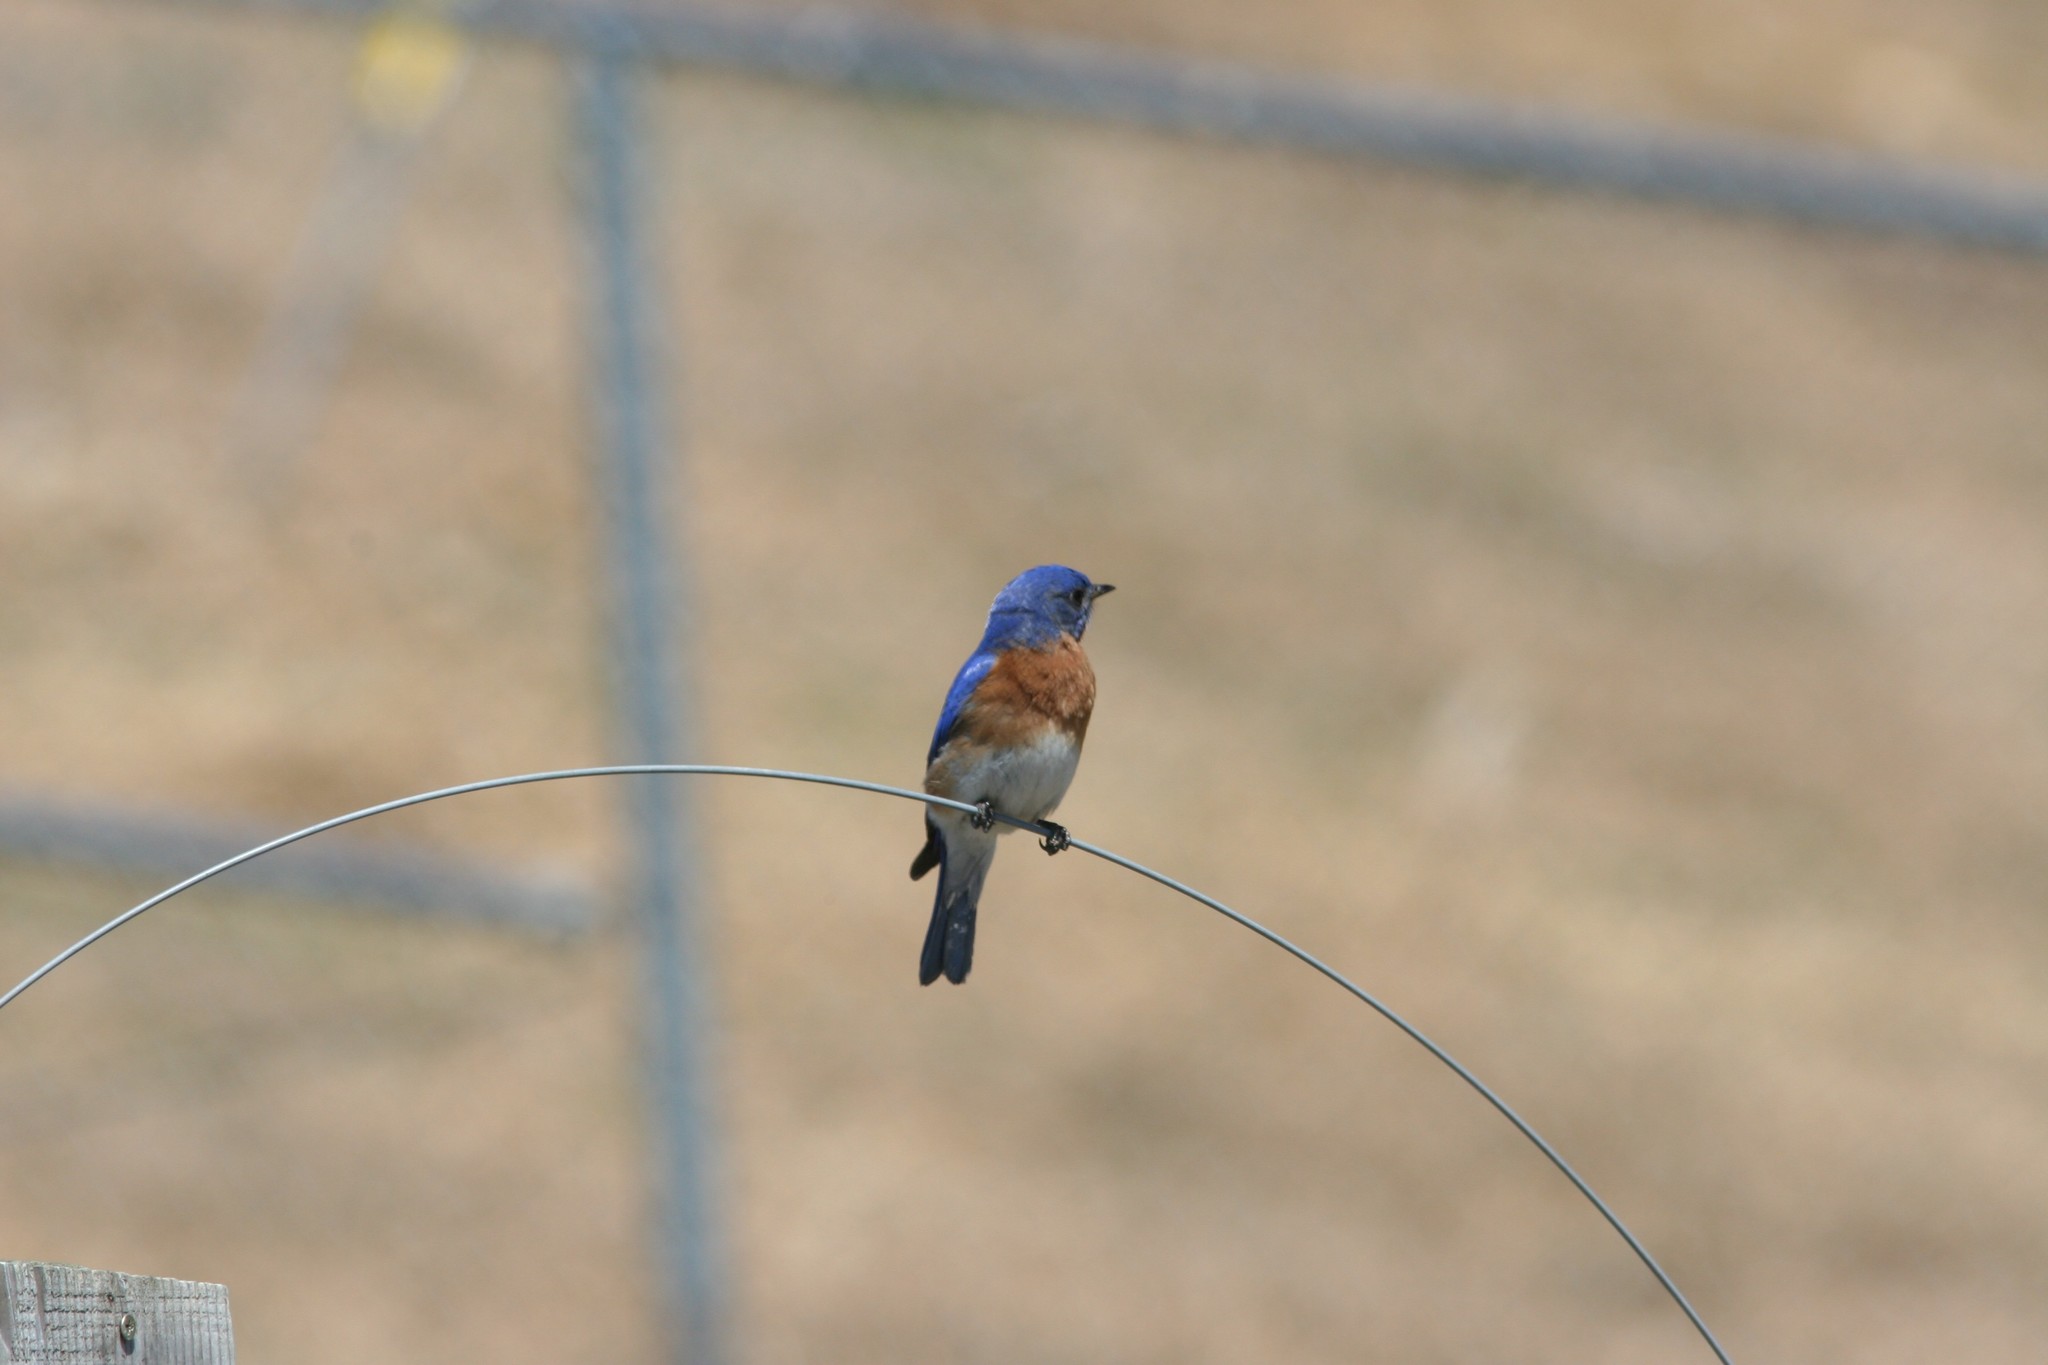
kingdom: Animalia
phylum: Chordata
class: Aves
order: Passeriformes
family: Turdidae
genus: Sialia
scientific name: Sialia sialis
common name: Eastern bluebird
